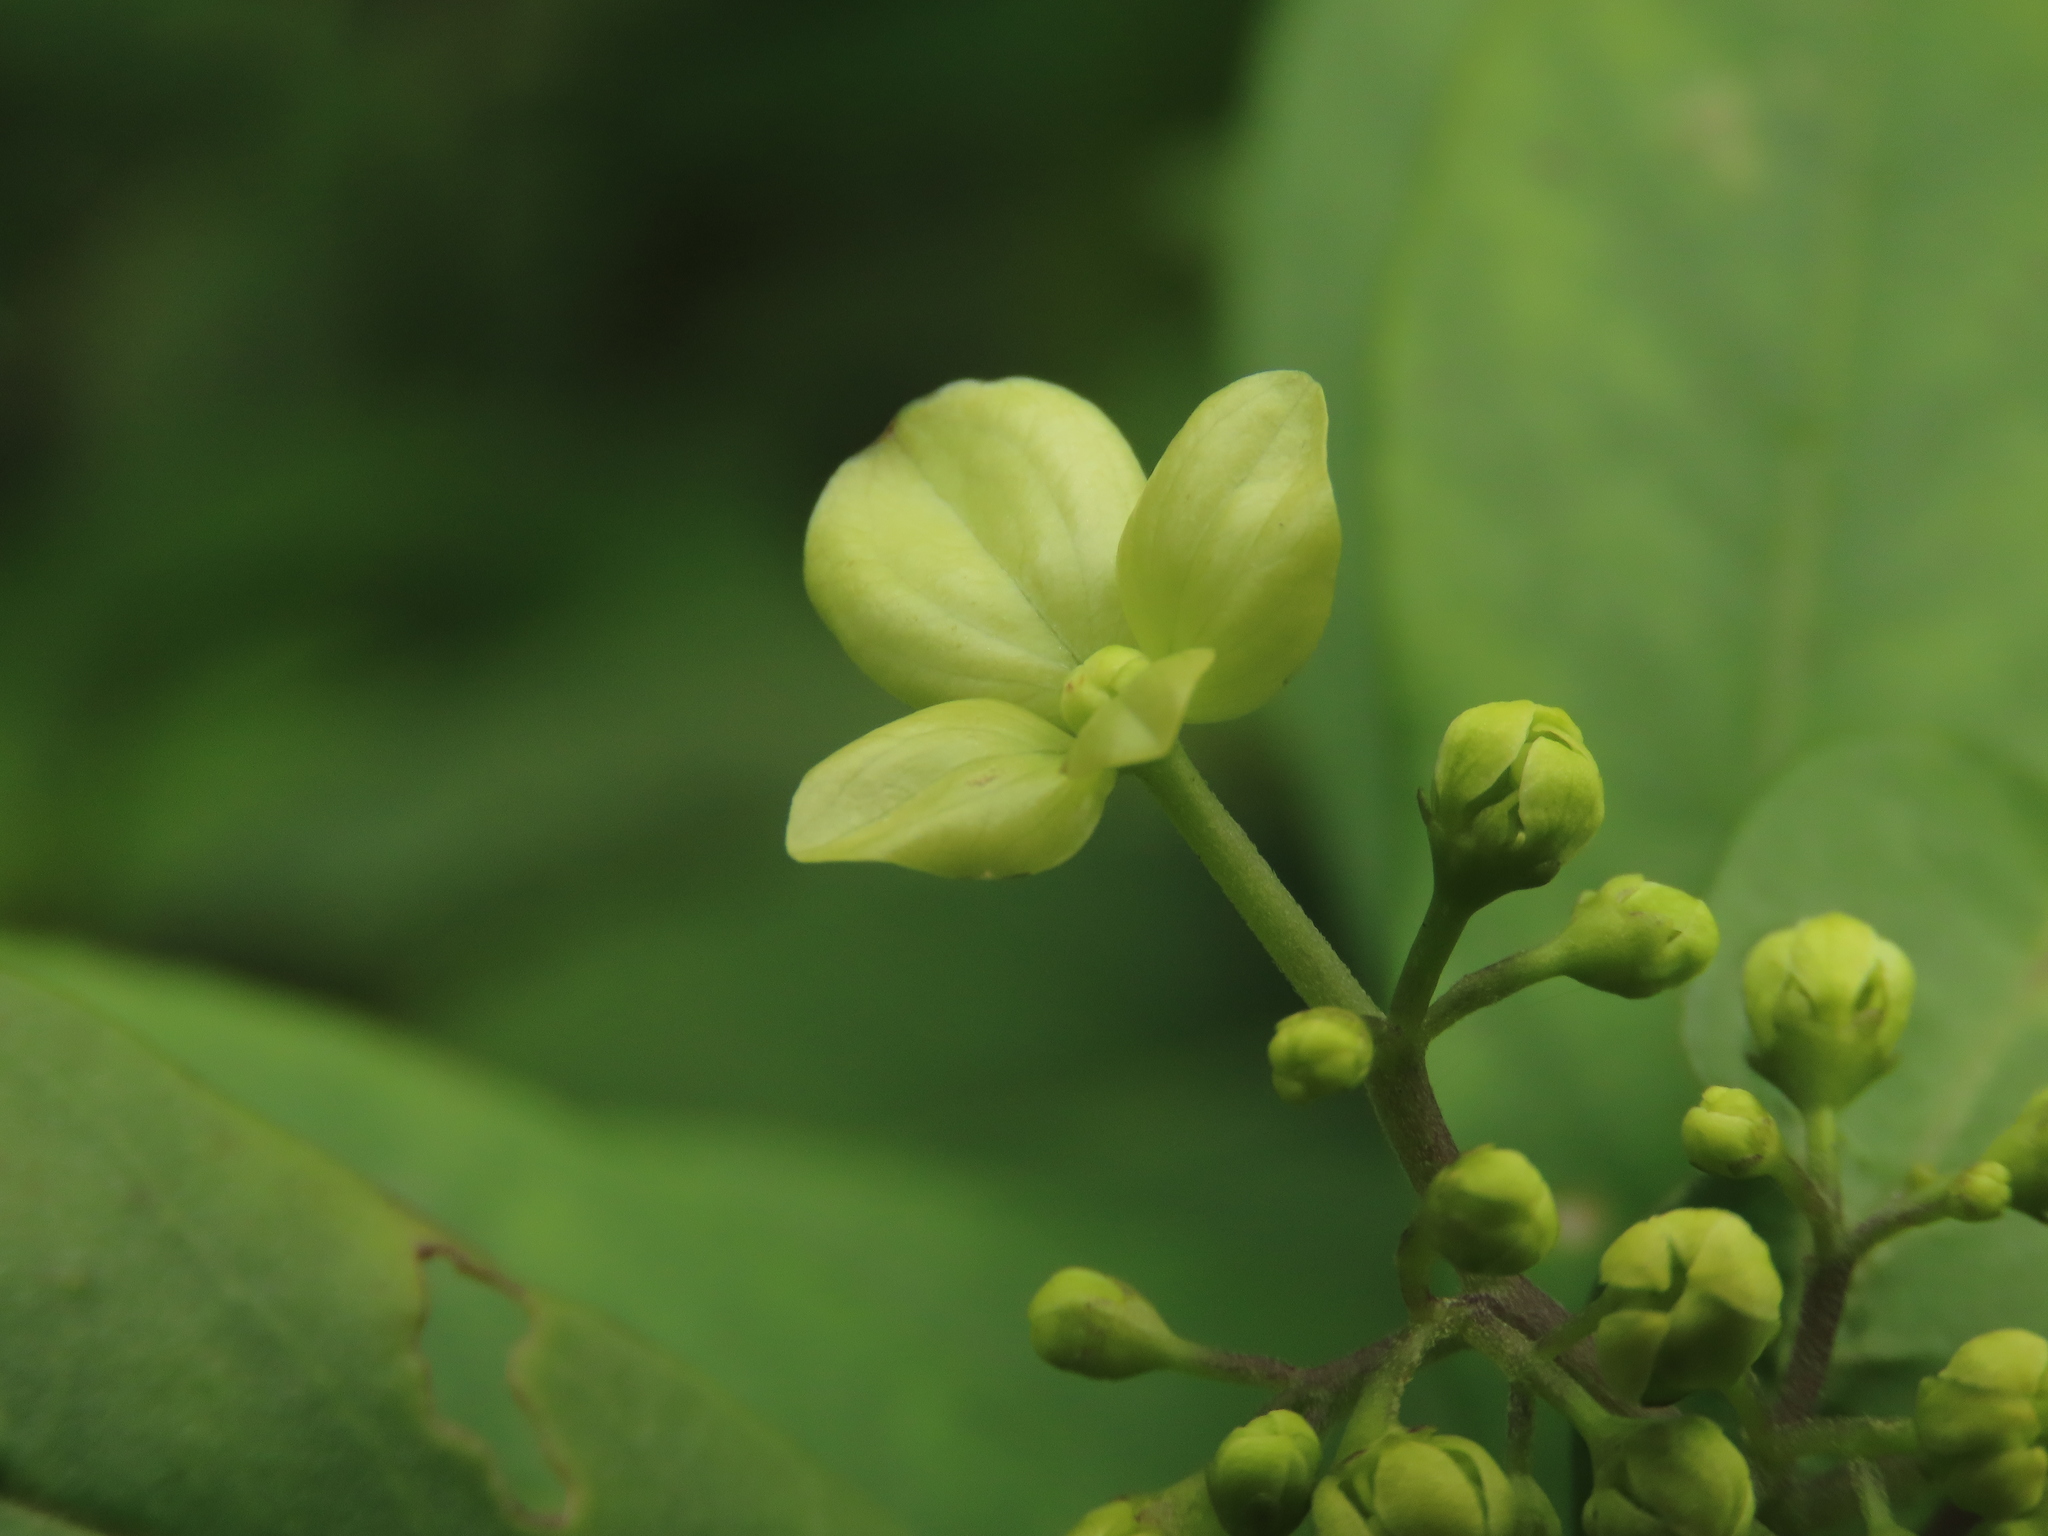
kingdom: Plantae
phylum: Tracheophyta
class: Magnoliopsida
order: Cornales
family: Hydrangeaceae
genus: Hydrangea
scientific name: Hydrangea chinensis
